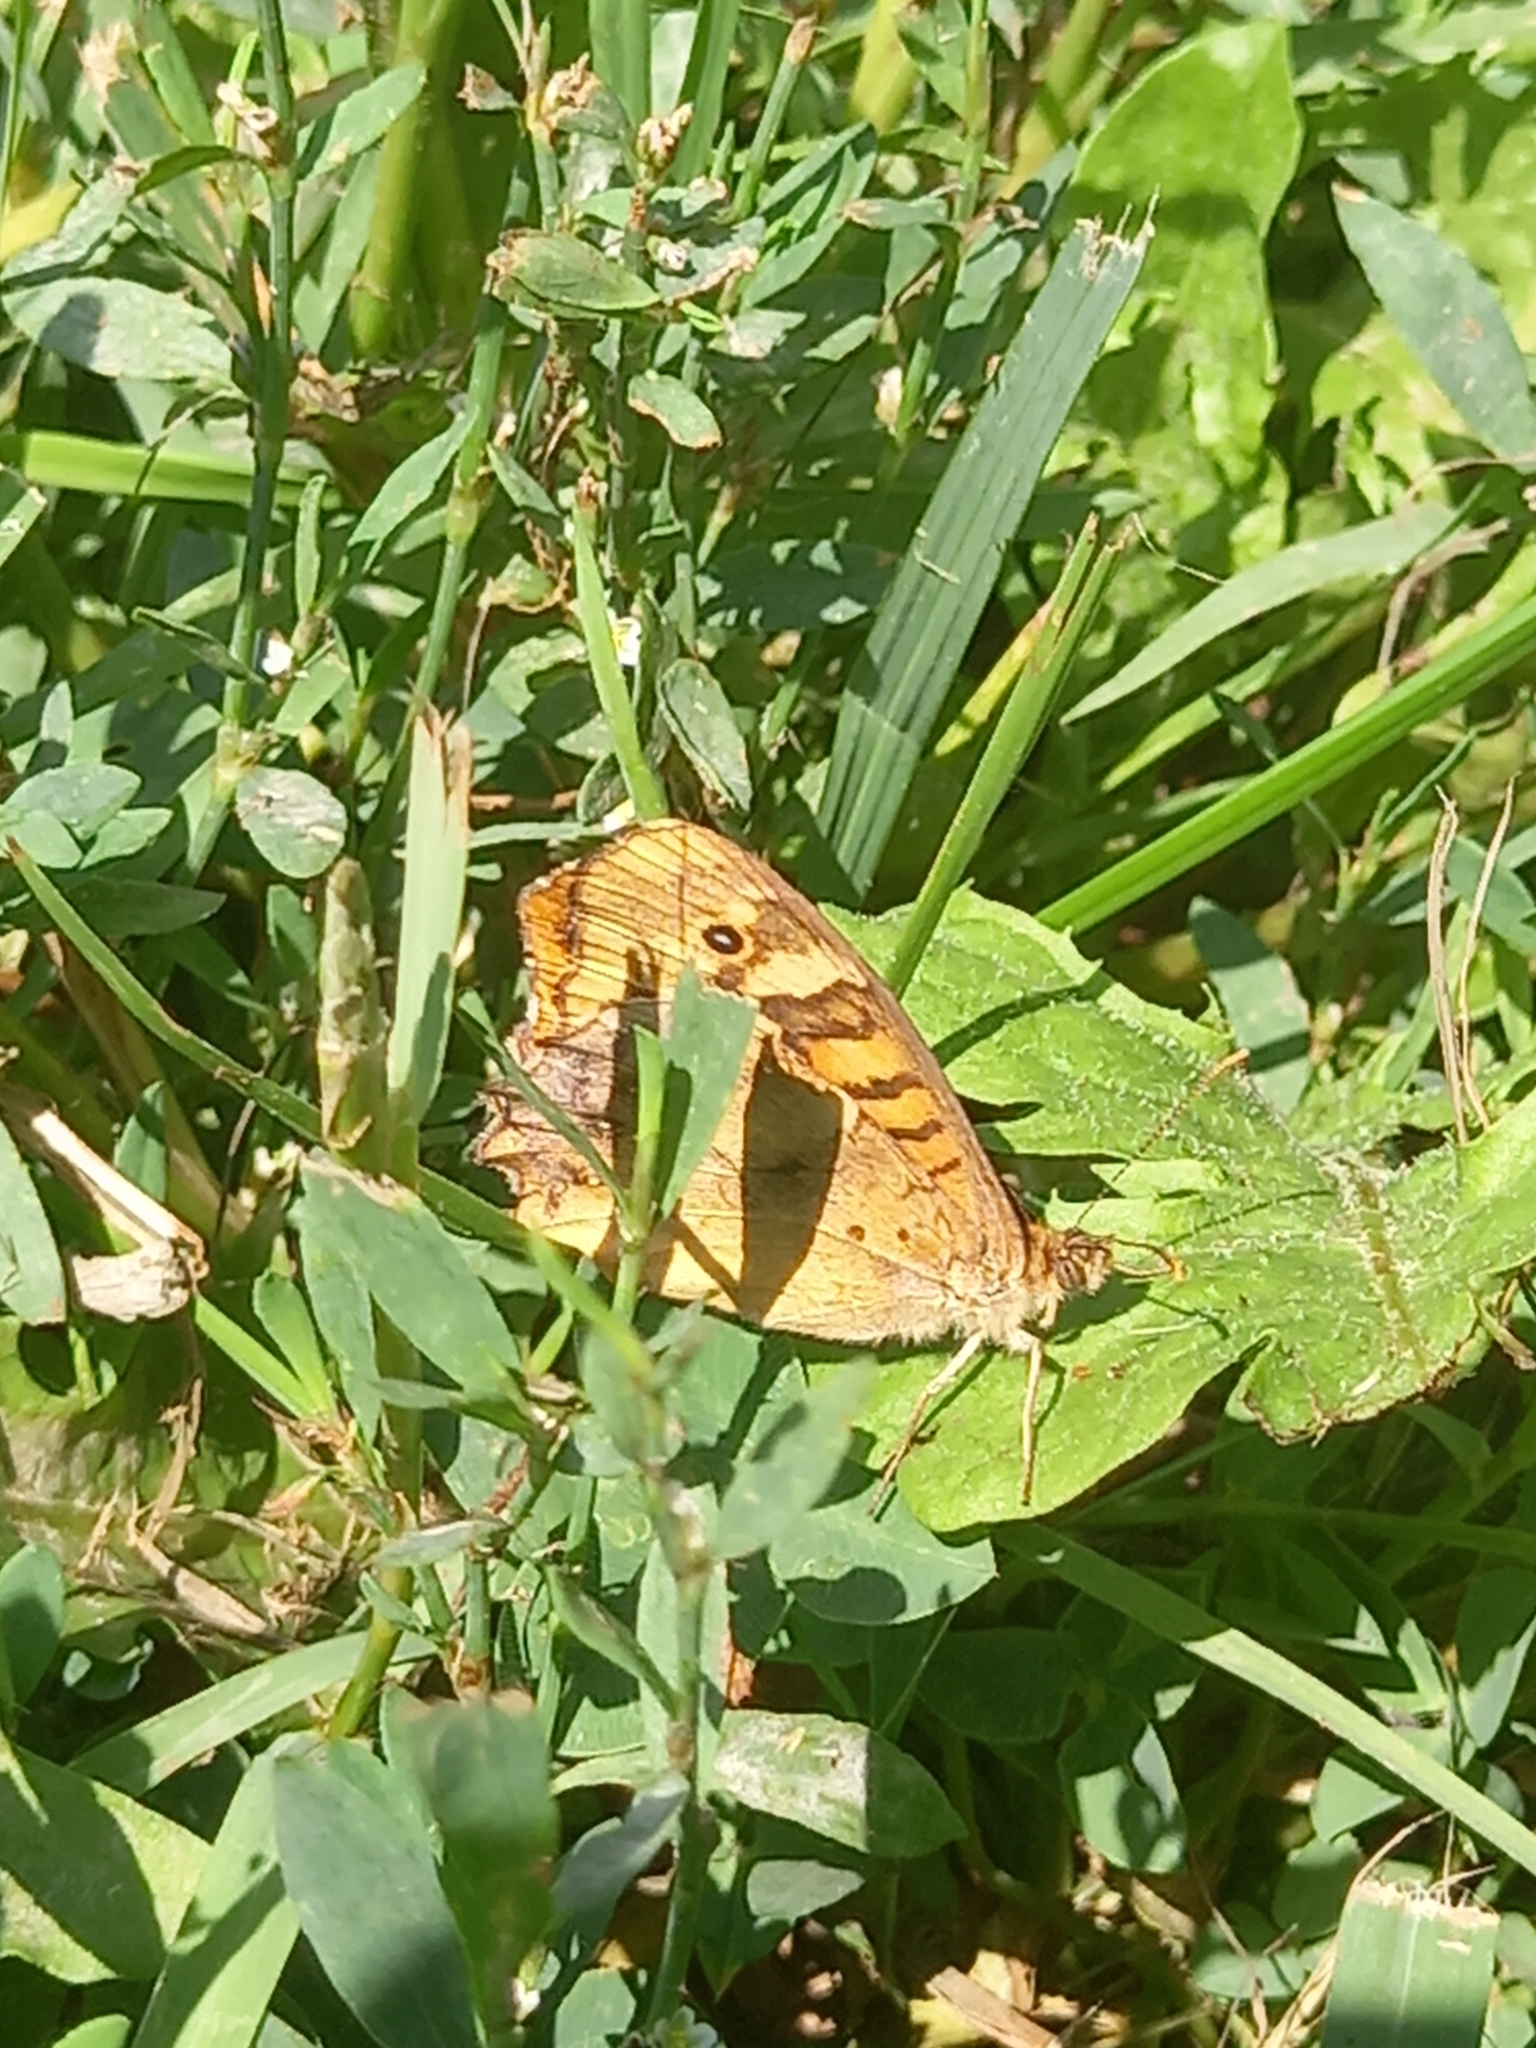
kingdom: Animalia
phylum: Arthropoda
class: Insecta
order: Lepidoptera
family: Nymphalidae
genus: Pararge
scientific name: Pararge aegeria
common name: Speckled wood
